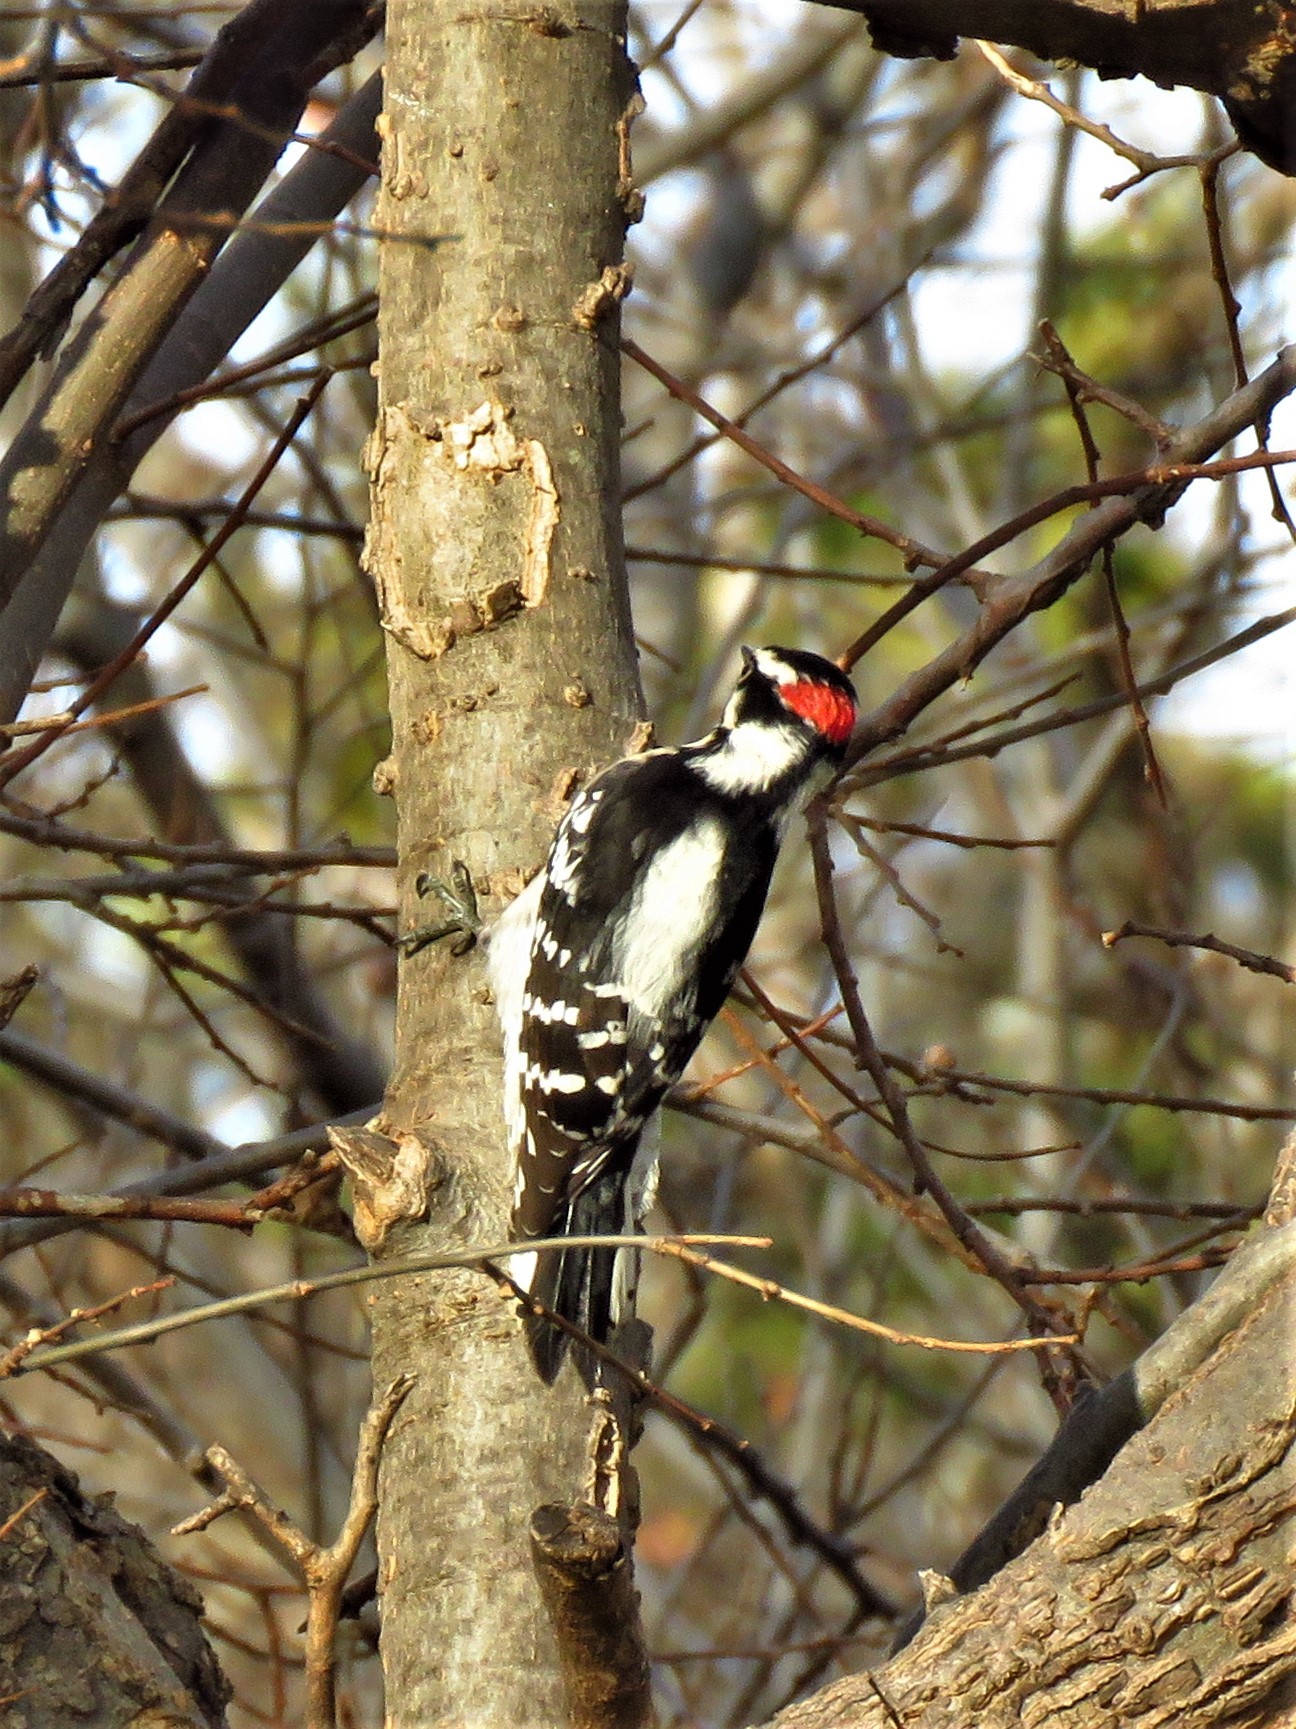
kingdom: Animalia
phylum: Chordata
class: Aves
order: Piciformes
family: Picidae
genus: Dryobates
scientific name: Dryobates pubescens
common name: Downy woodpecker
